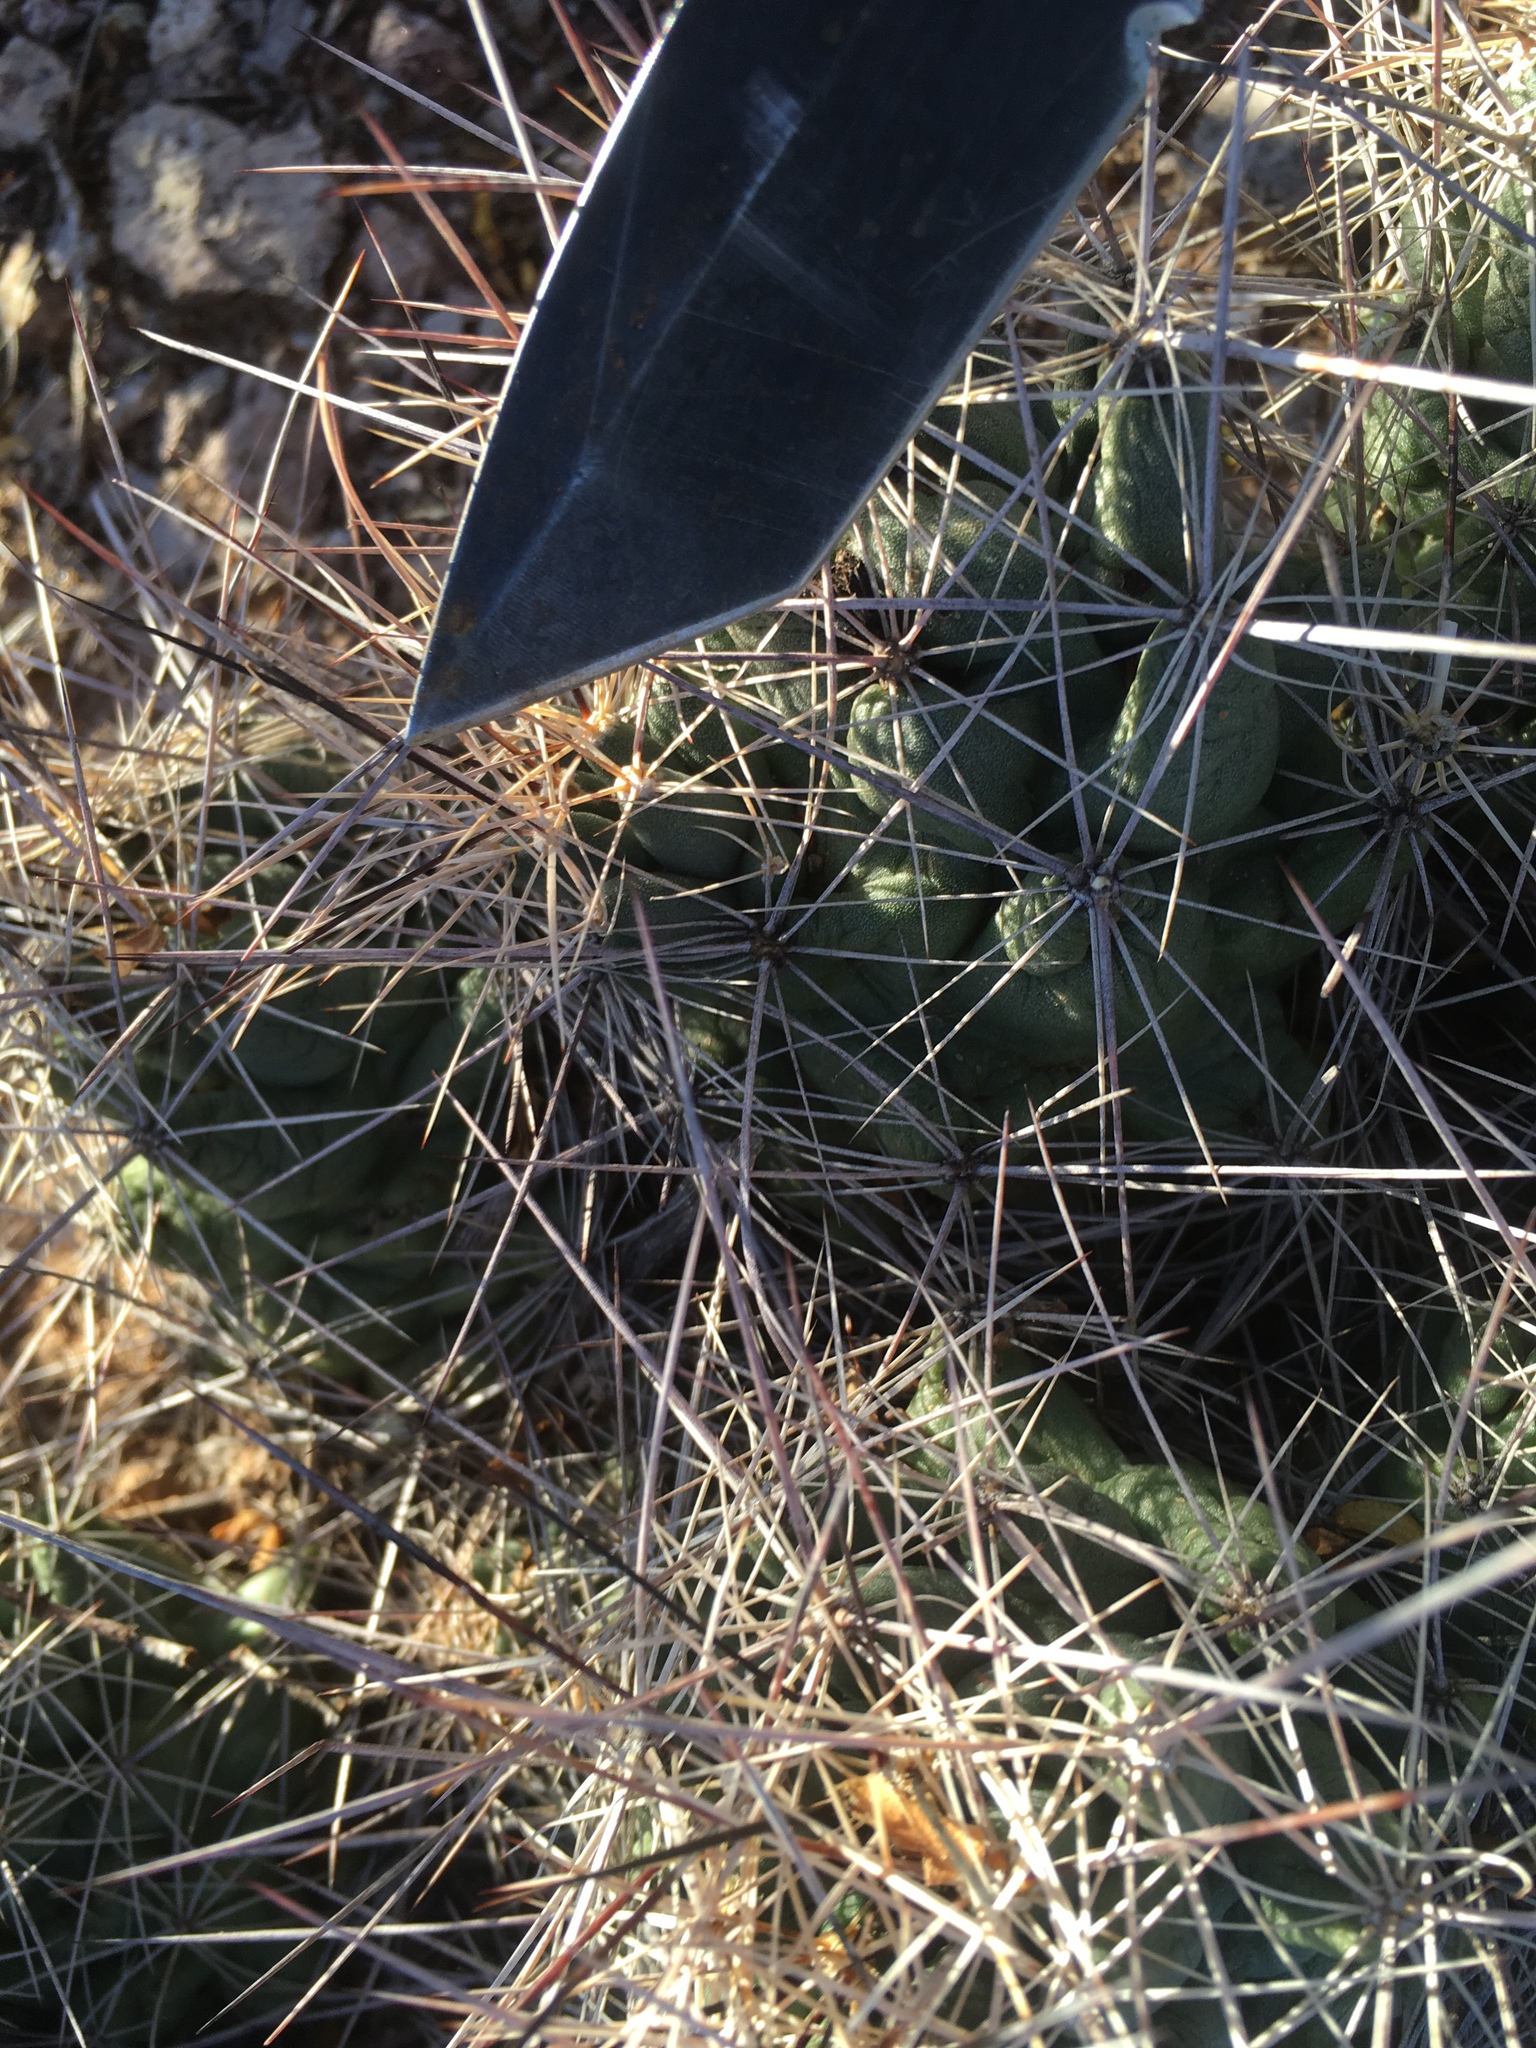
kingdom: Plantae
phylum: Tracheophyta
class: Magnoliopsida
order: Caryophyllales
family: Cactaceae
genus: Coryphantha
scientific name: Coryphantha macromeris
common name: Nipple beehive cactus
